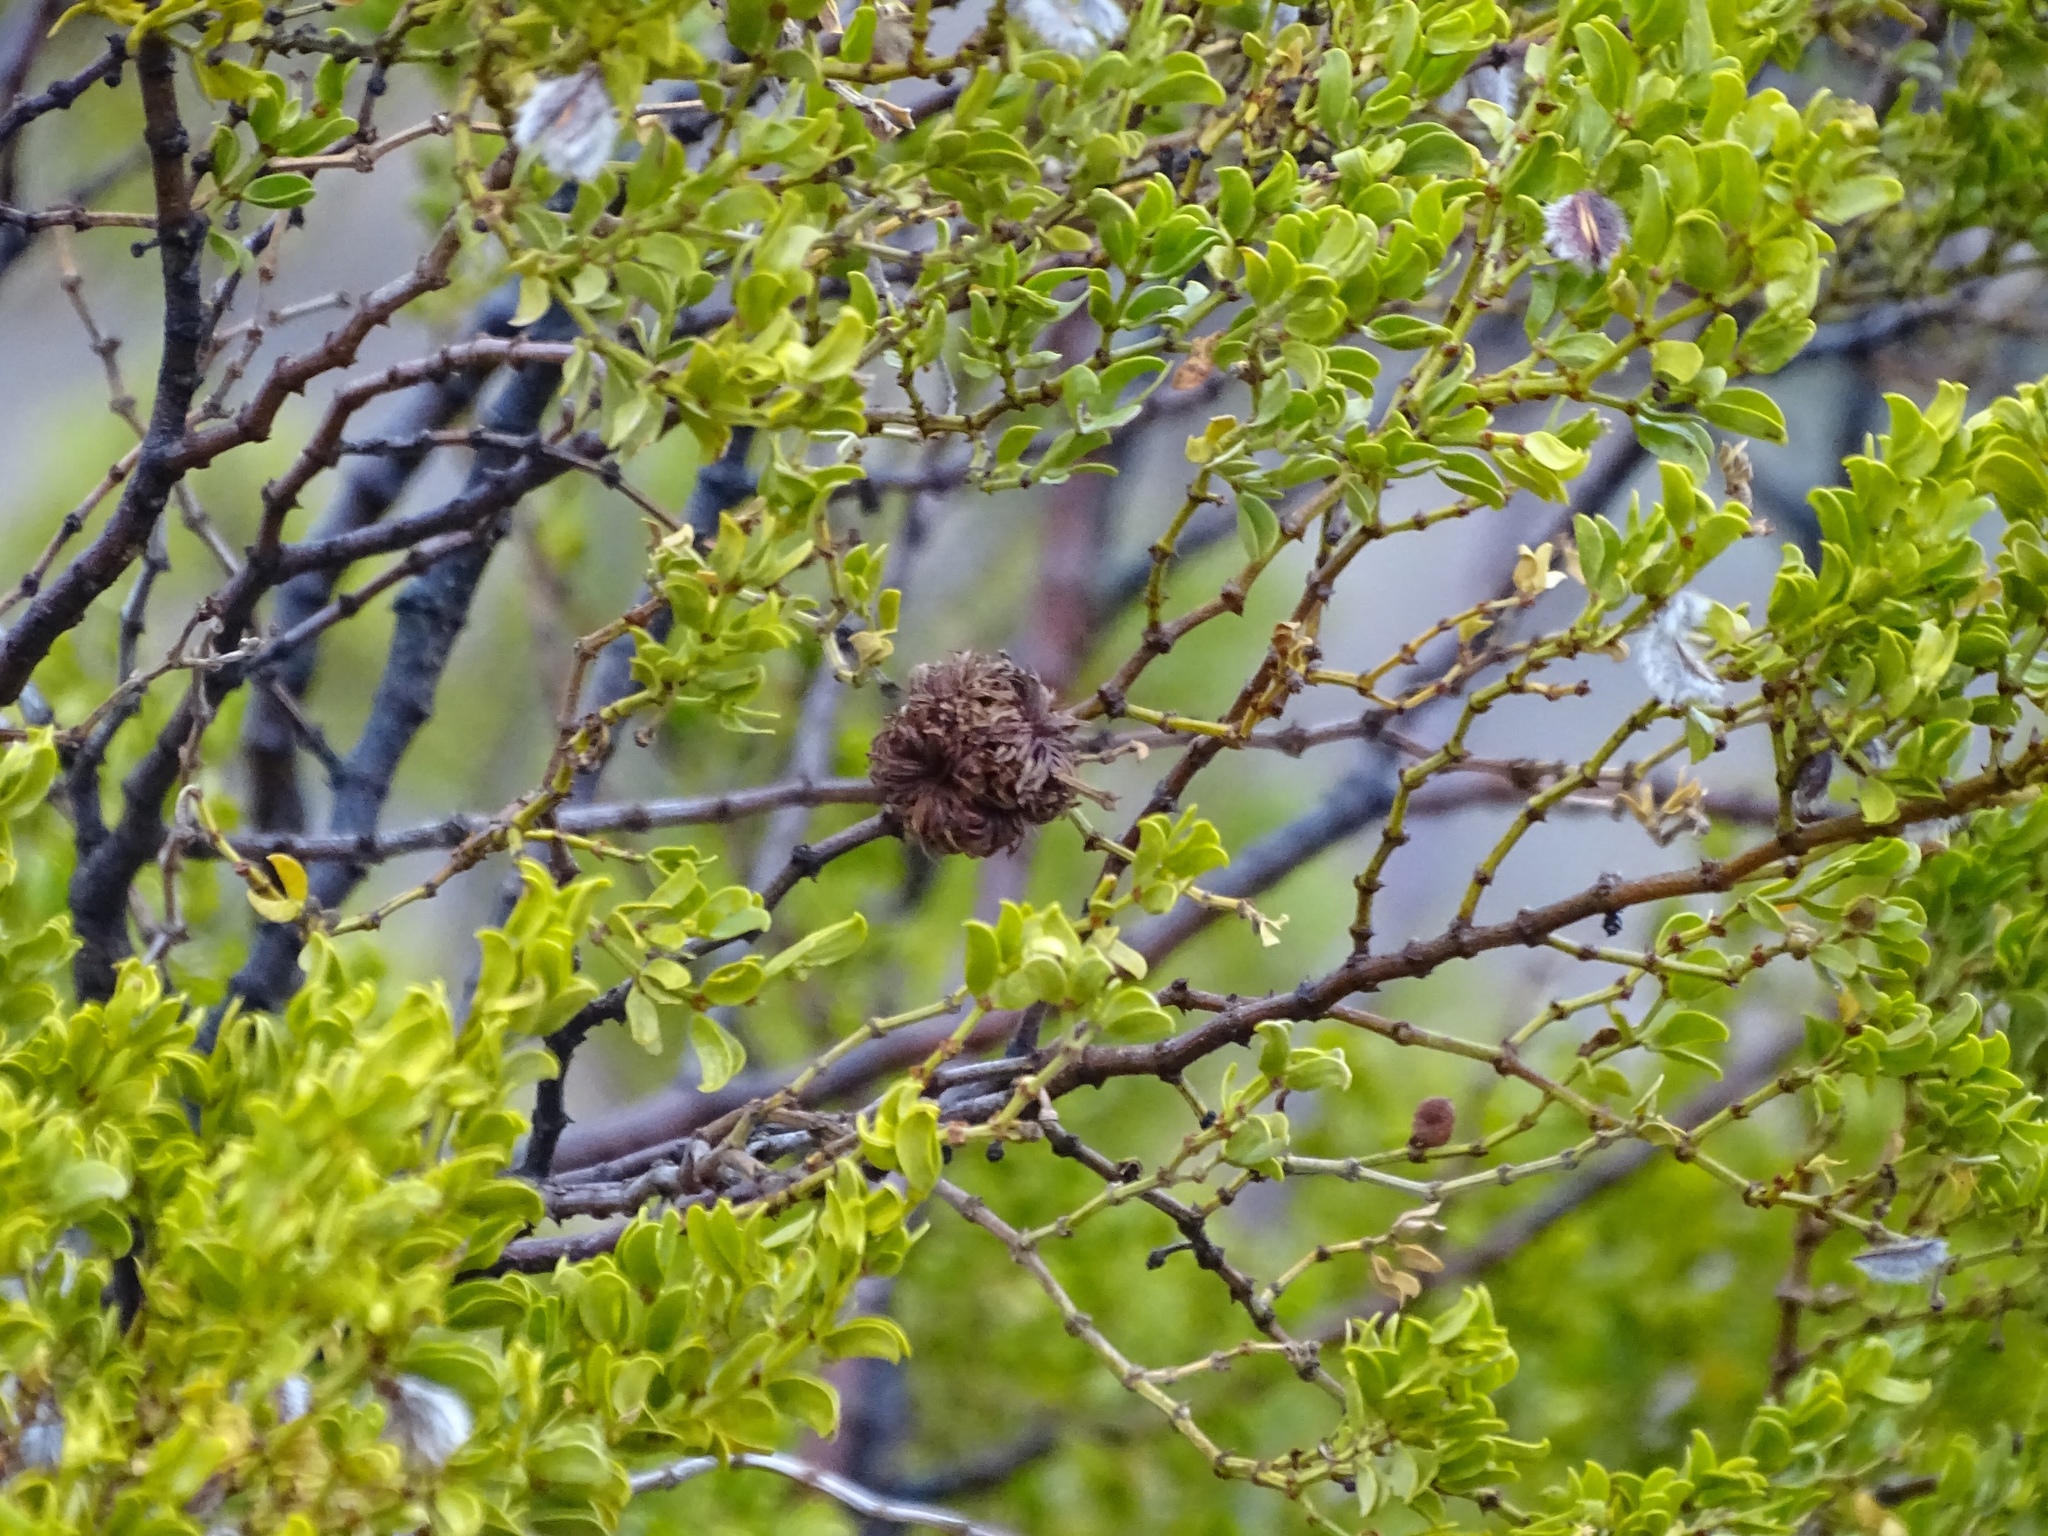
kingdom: Animalia
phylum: Arthropoda
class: Insecta
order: Diptera
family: Cecidomyiidae
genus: Asphondylia
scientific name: Asphondylia auripila
